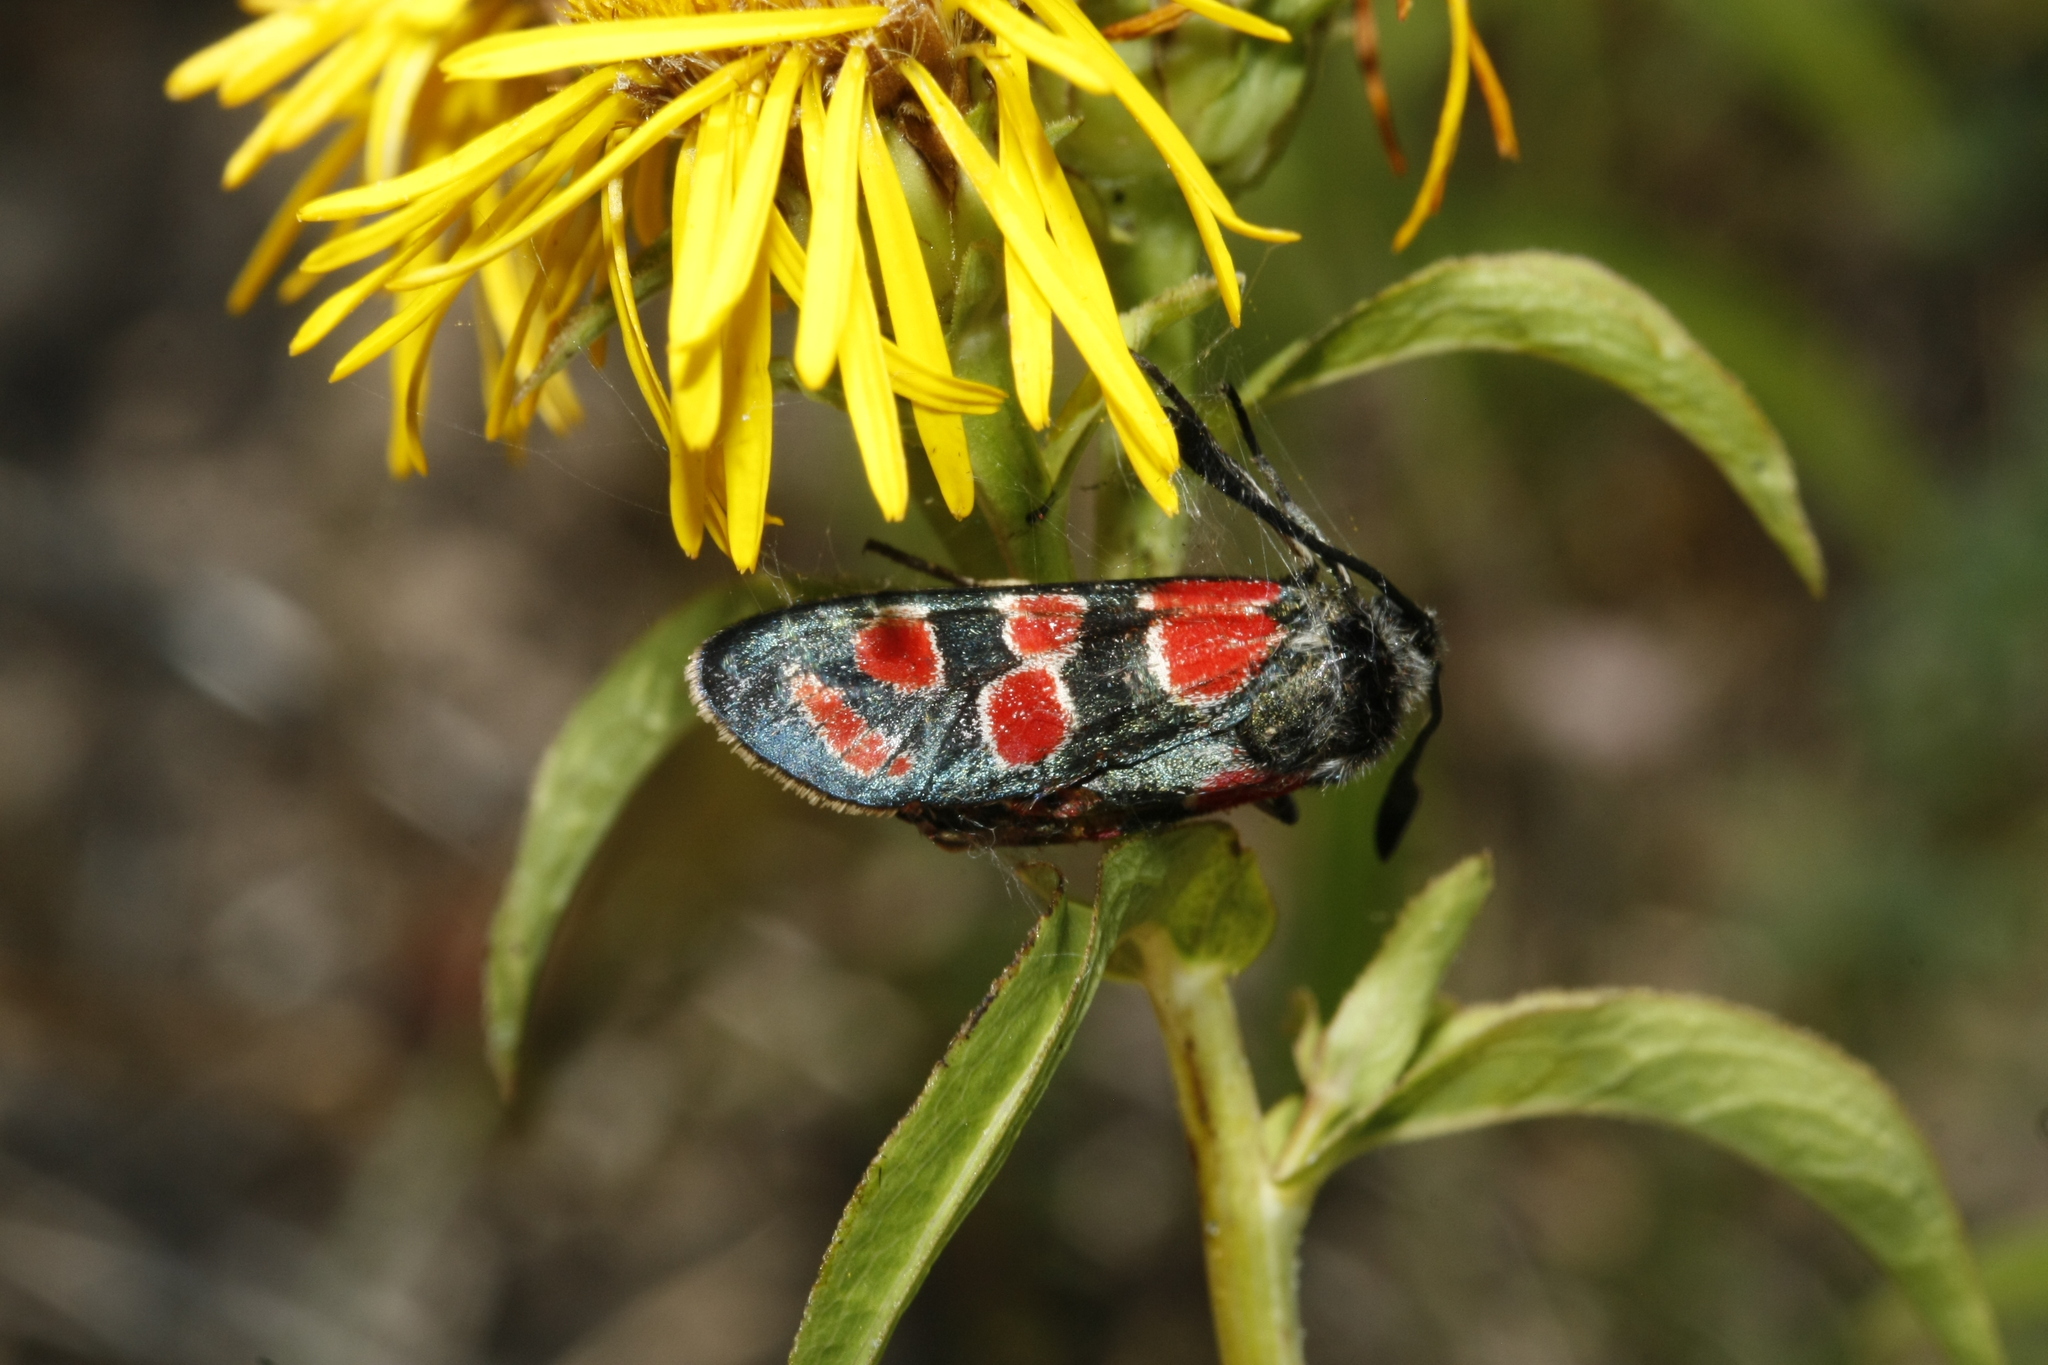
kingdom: Animalia
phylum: Arthropoda
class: Insecta
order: Lepidoptera
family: Zygaenidae
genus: Zygaena
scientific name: Zygaena carniolica
